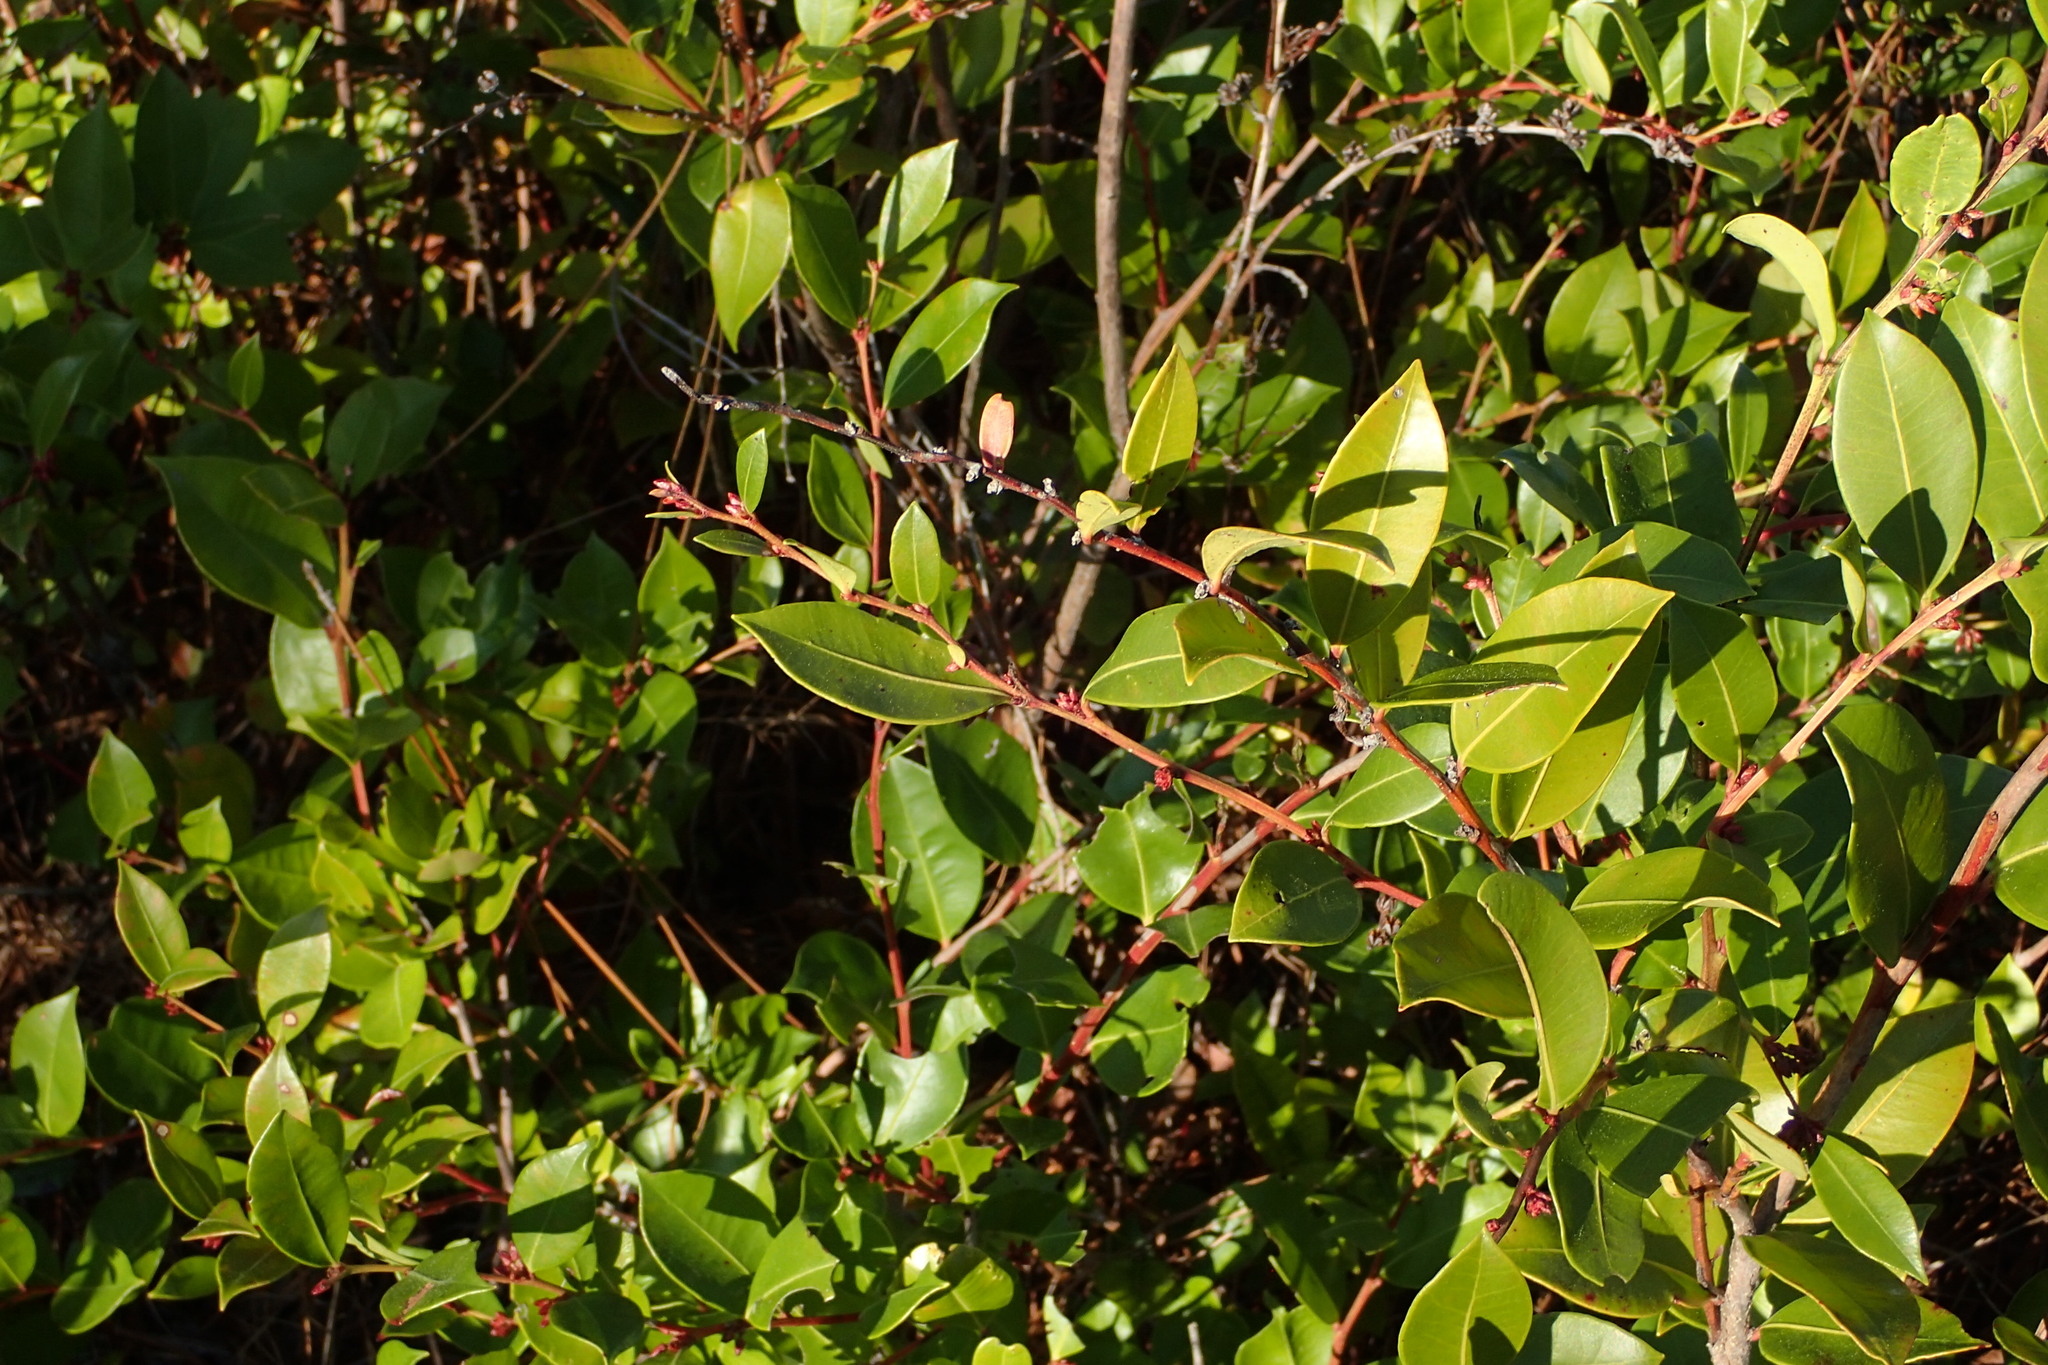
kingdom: Plantae
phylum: Tracheophyta
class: Magnoliopsida
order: Ericales
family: Ericaceae
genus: Lyonia
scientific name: Lyonia lucida
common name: Fetterbush
